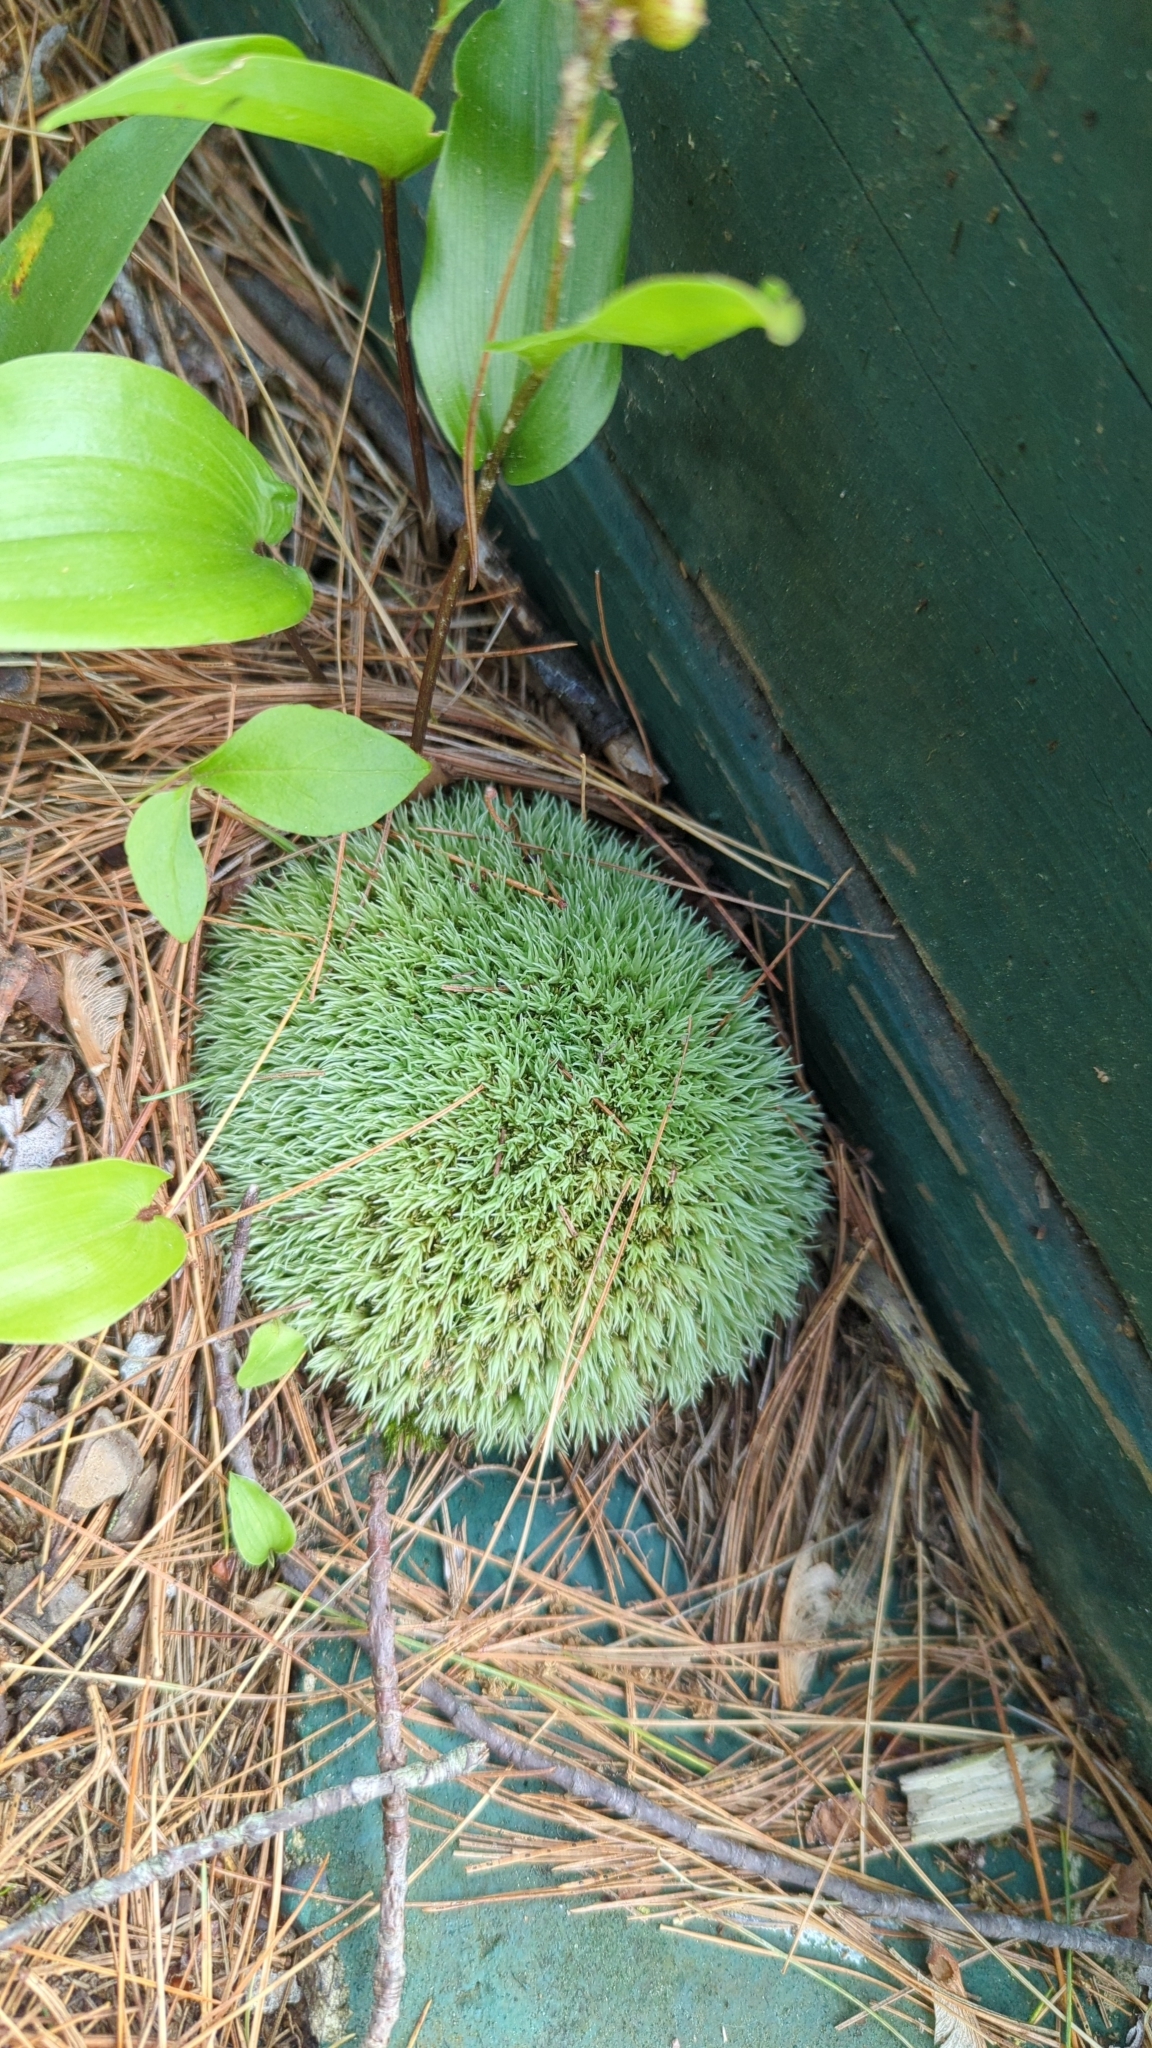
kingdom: Plantae
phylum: Bryophyta
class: Bryopsida
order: Dicranales
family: Leucobryaceae
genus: Leucobryum
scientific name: Leucobryum glaucum
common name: Large white-moss
